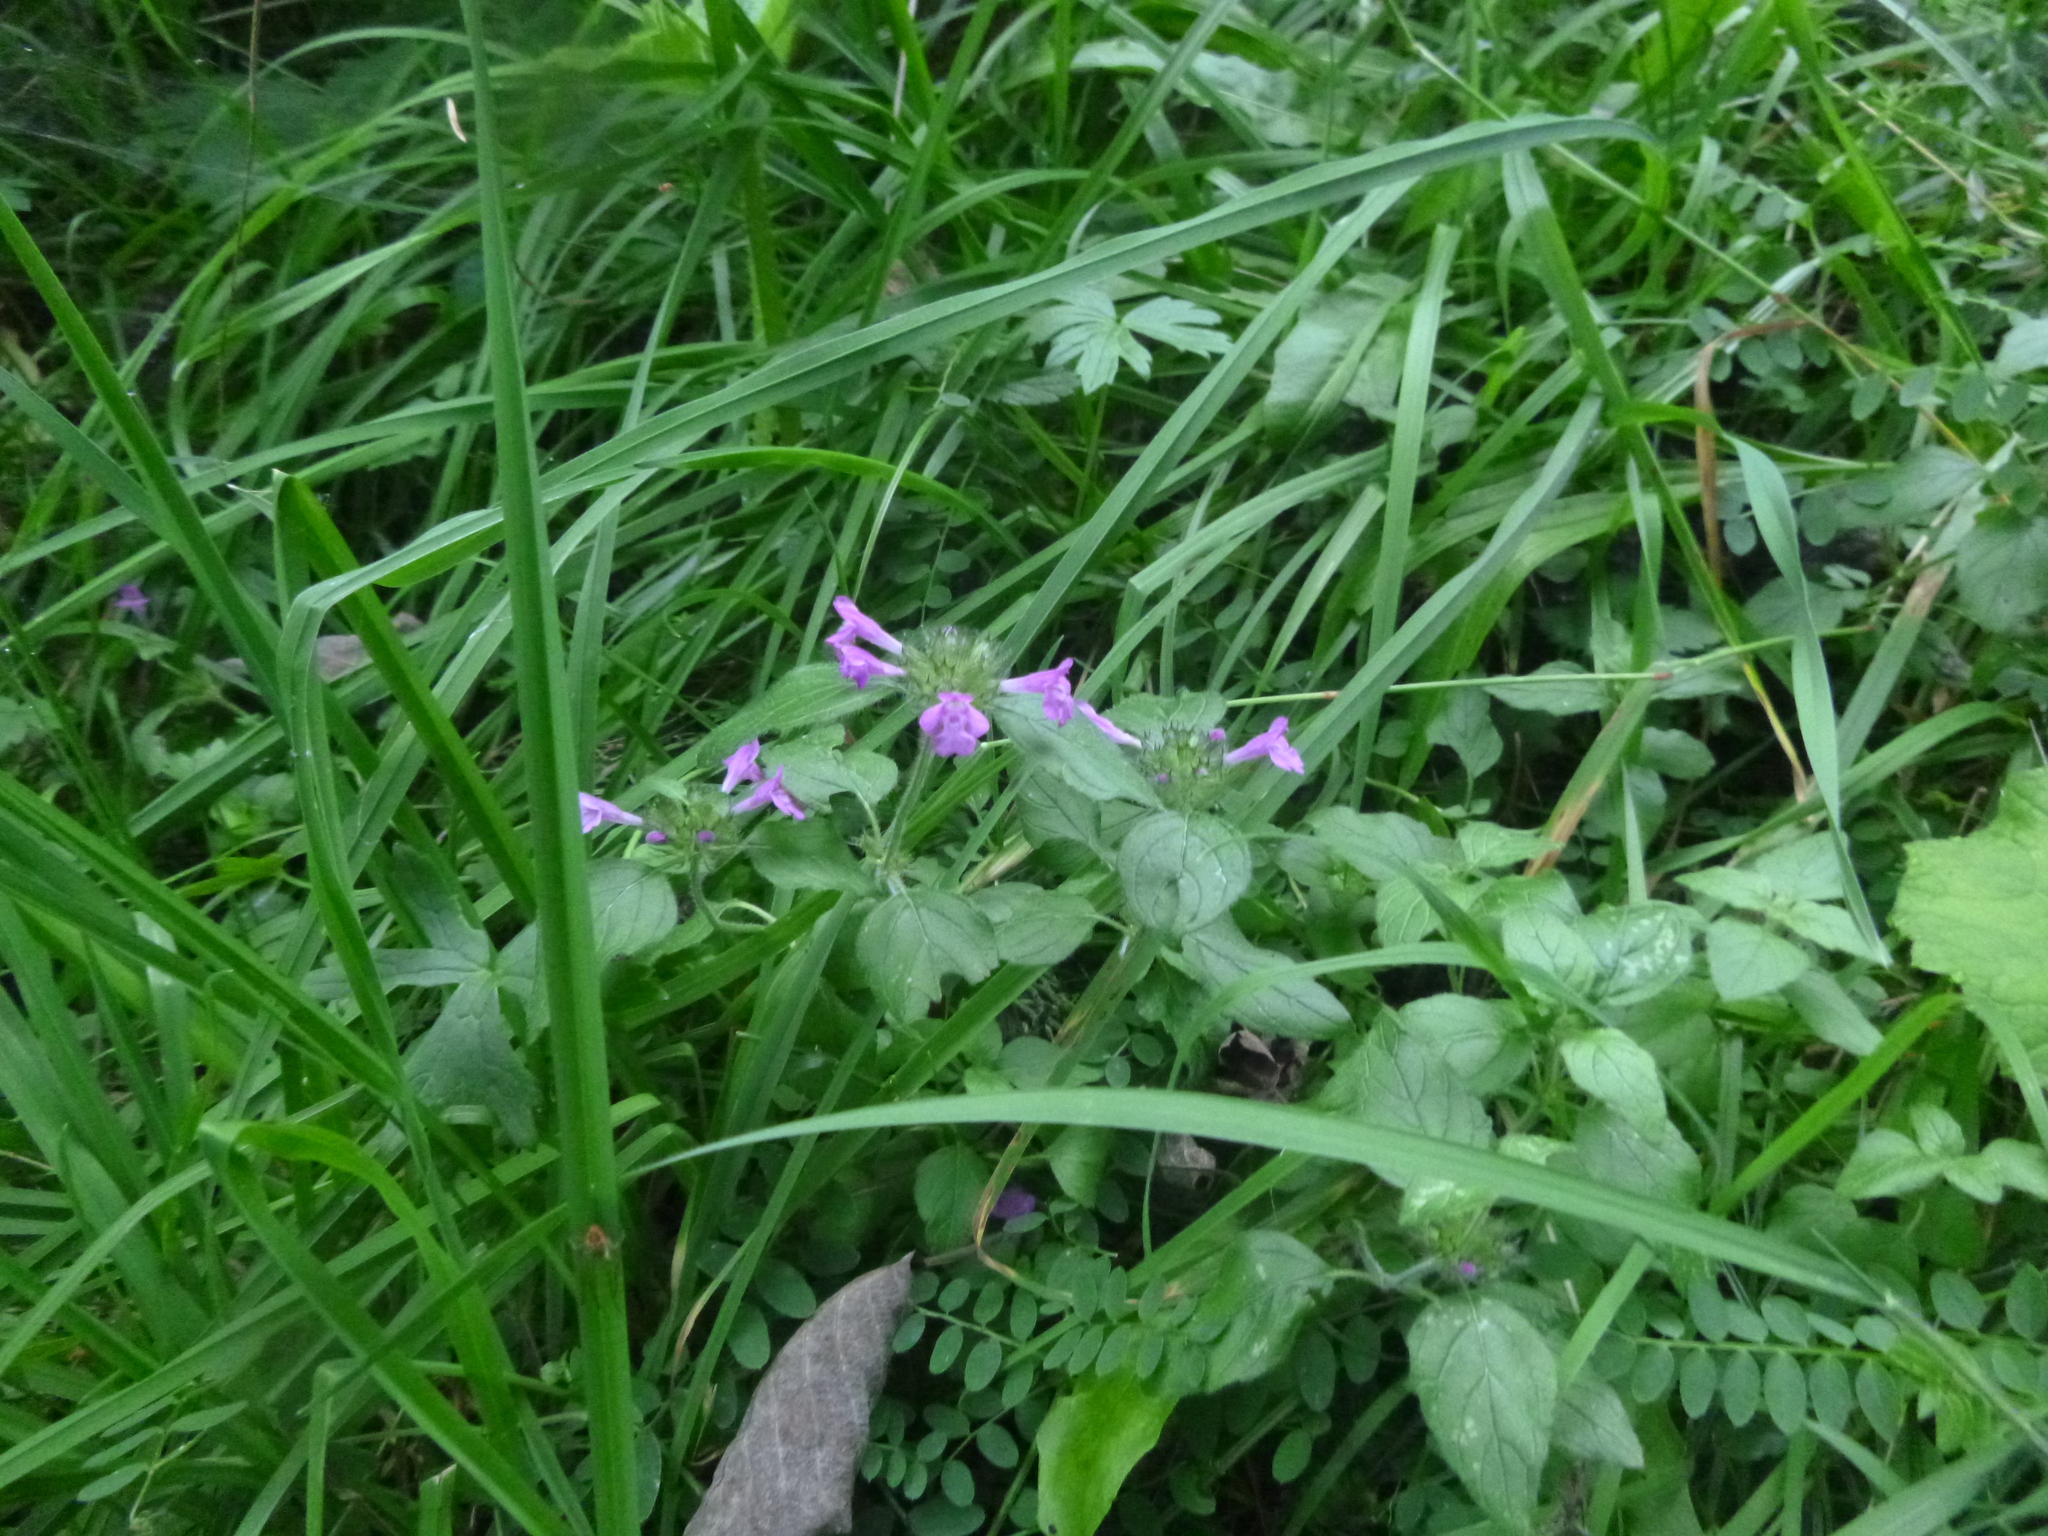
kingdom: Plantae
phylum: Tracheophyta
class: Magnoliopsida
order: Lamiales
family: Lamiaceae
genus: Clinopodium
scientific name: Clinopodium vulgare
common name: Wild basil
